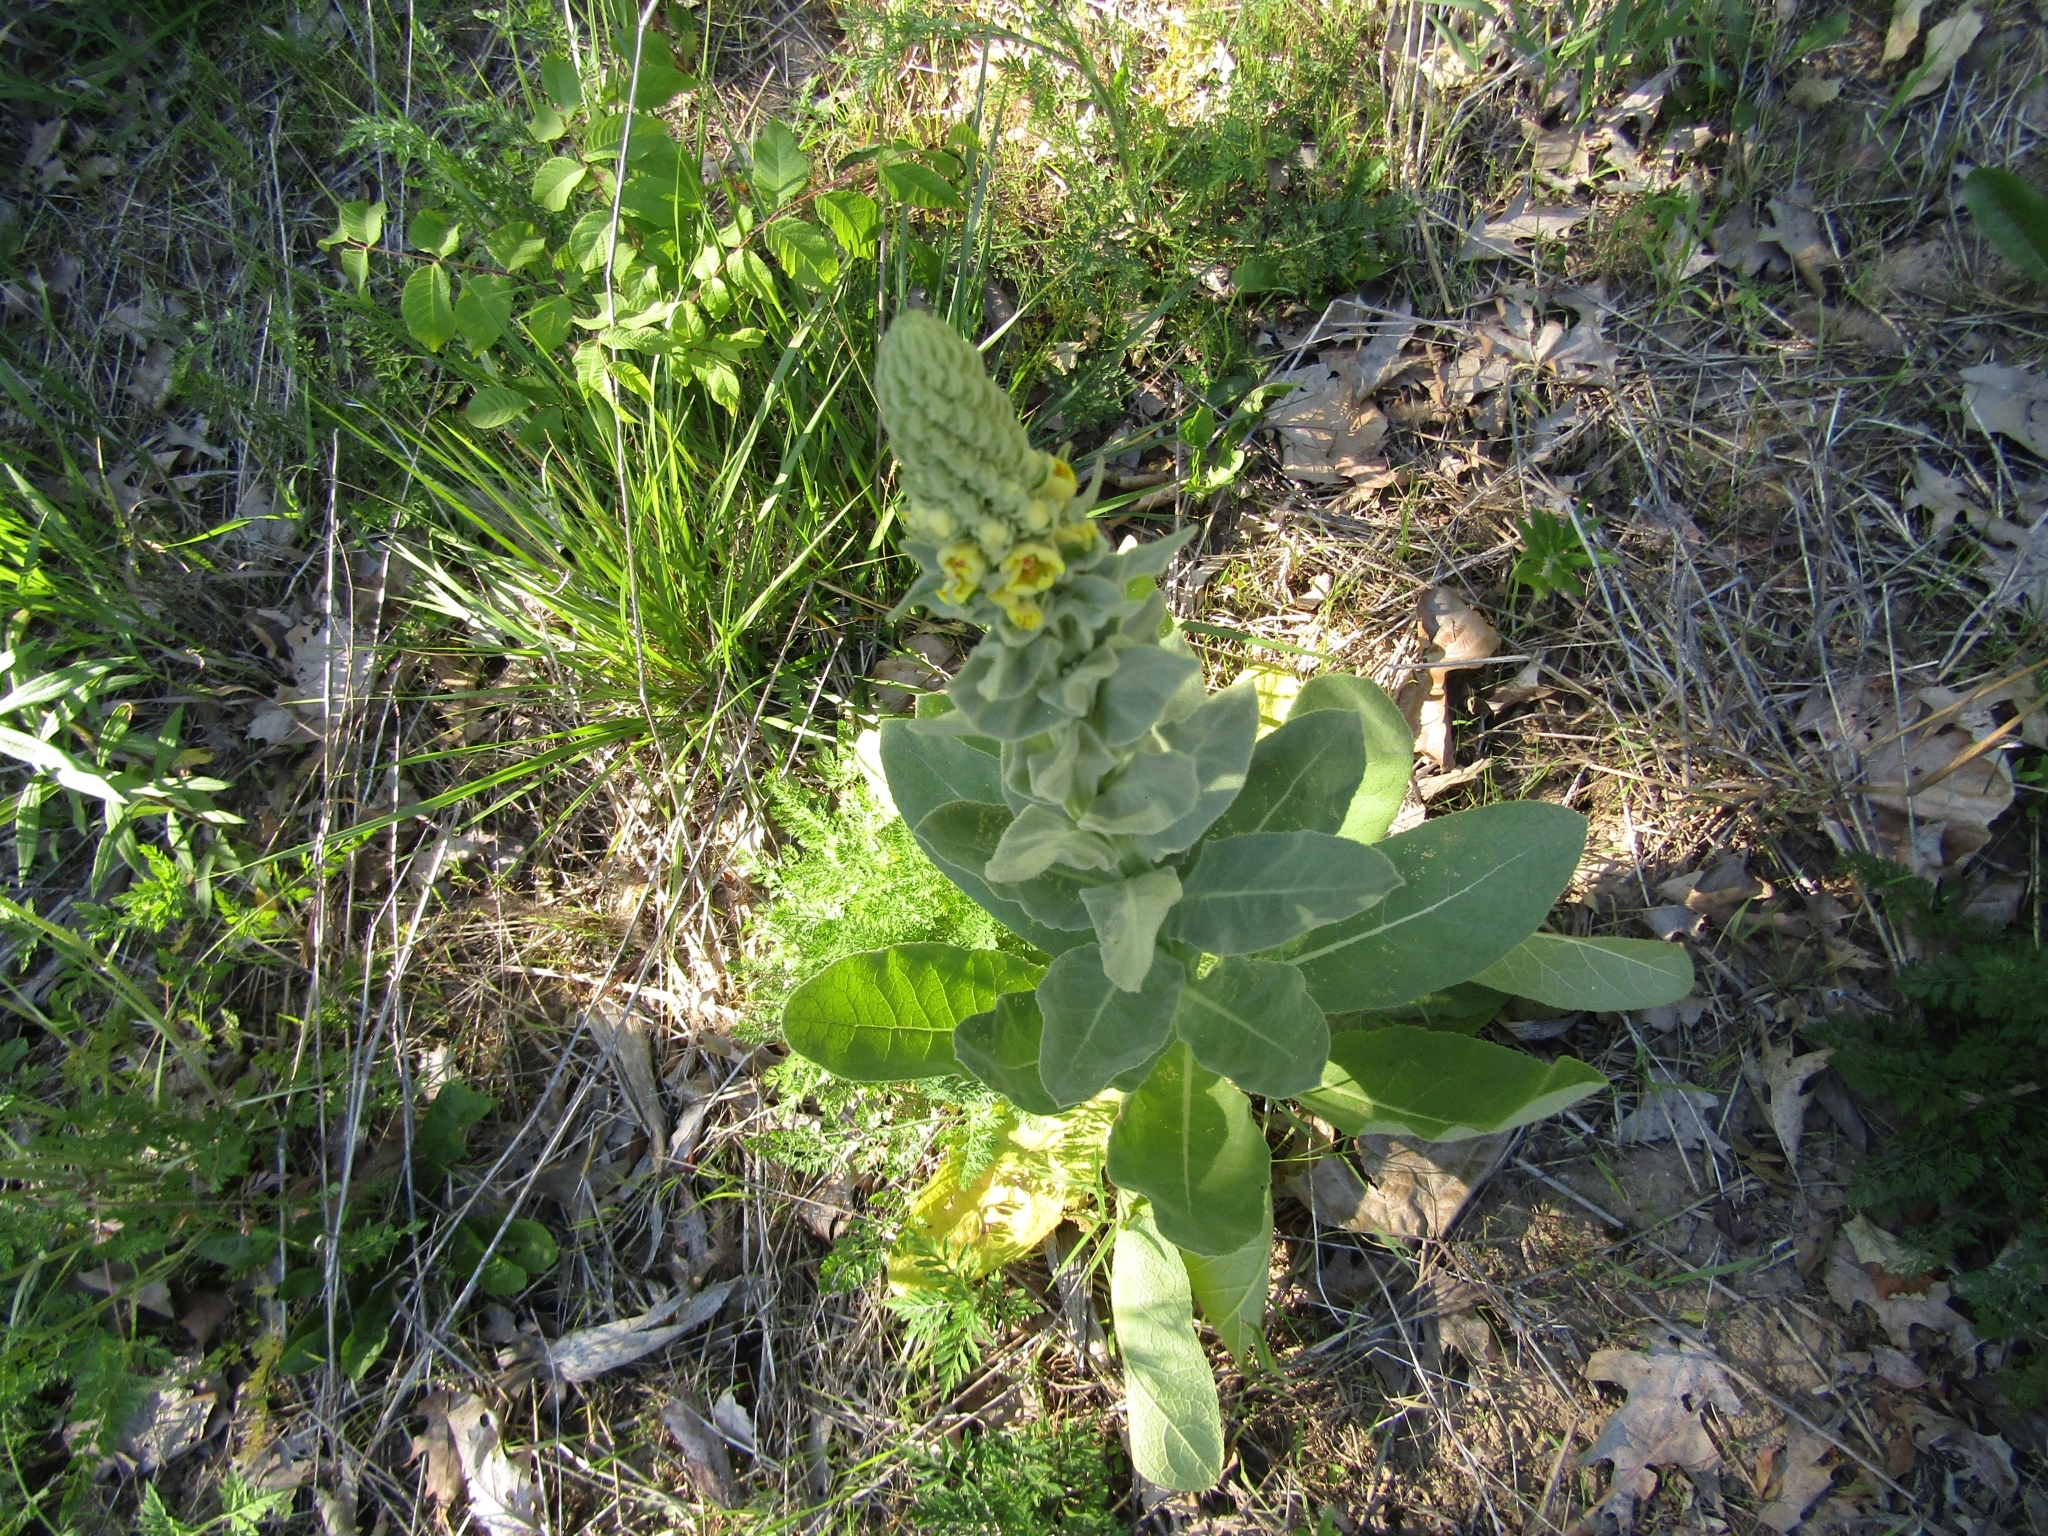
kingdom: Plantae
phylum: Tracheophyta
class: Magnoliopsida
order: Lamiales
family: Scrophulariaceae
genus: Verbascum
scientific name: Verbascum thapsus
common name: Common mullein
